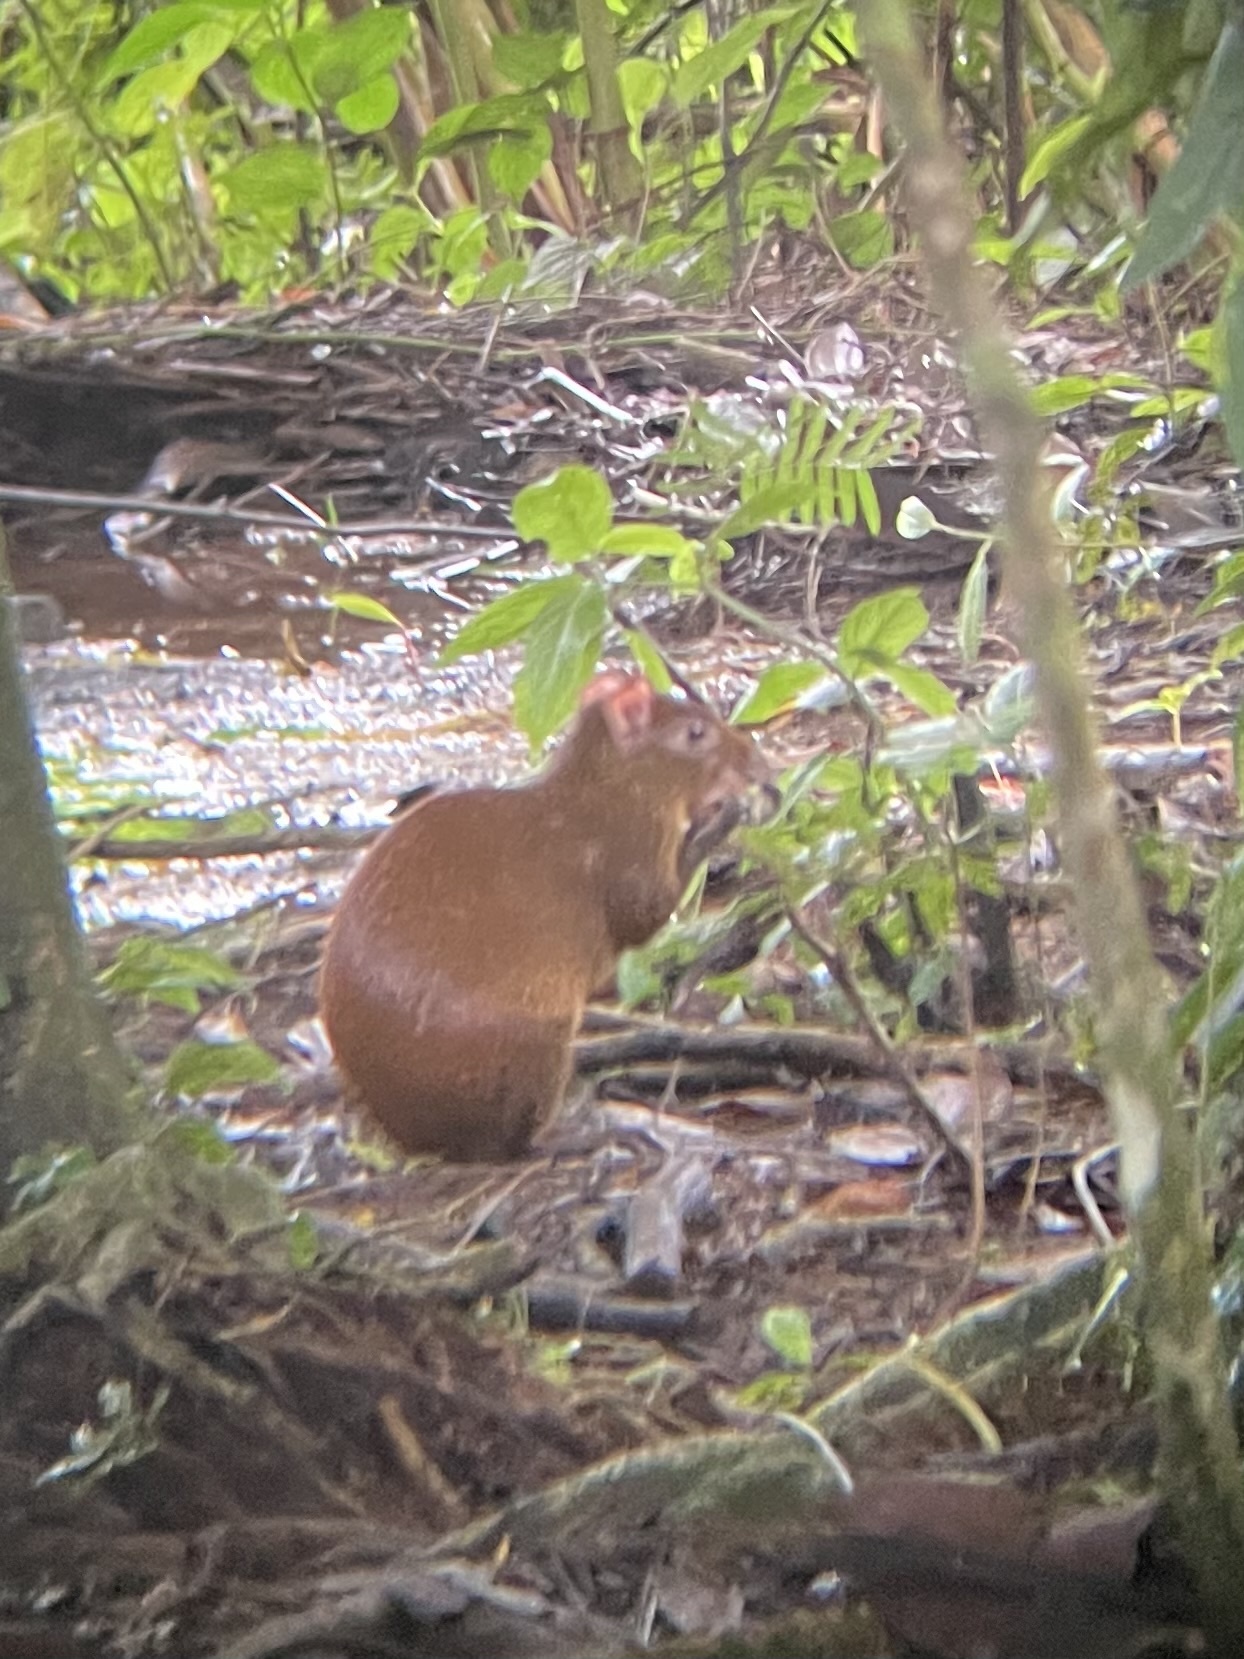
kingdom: Animalia
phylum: Chordata
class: Mammalia
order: Rodentia
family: Dasyproctidae
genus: Dasyprocta
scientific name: Dasyprocta punctata
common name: Central american agouti
